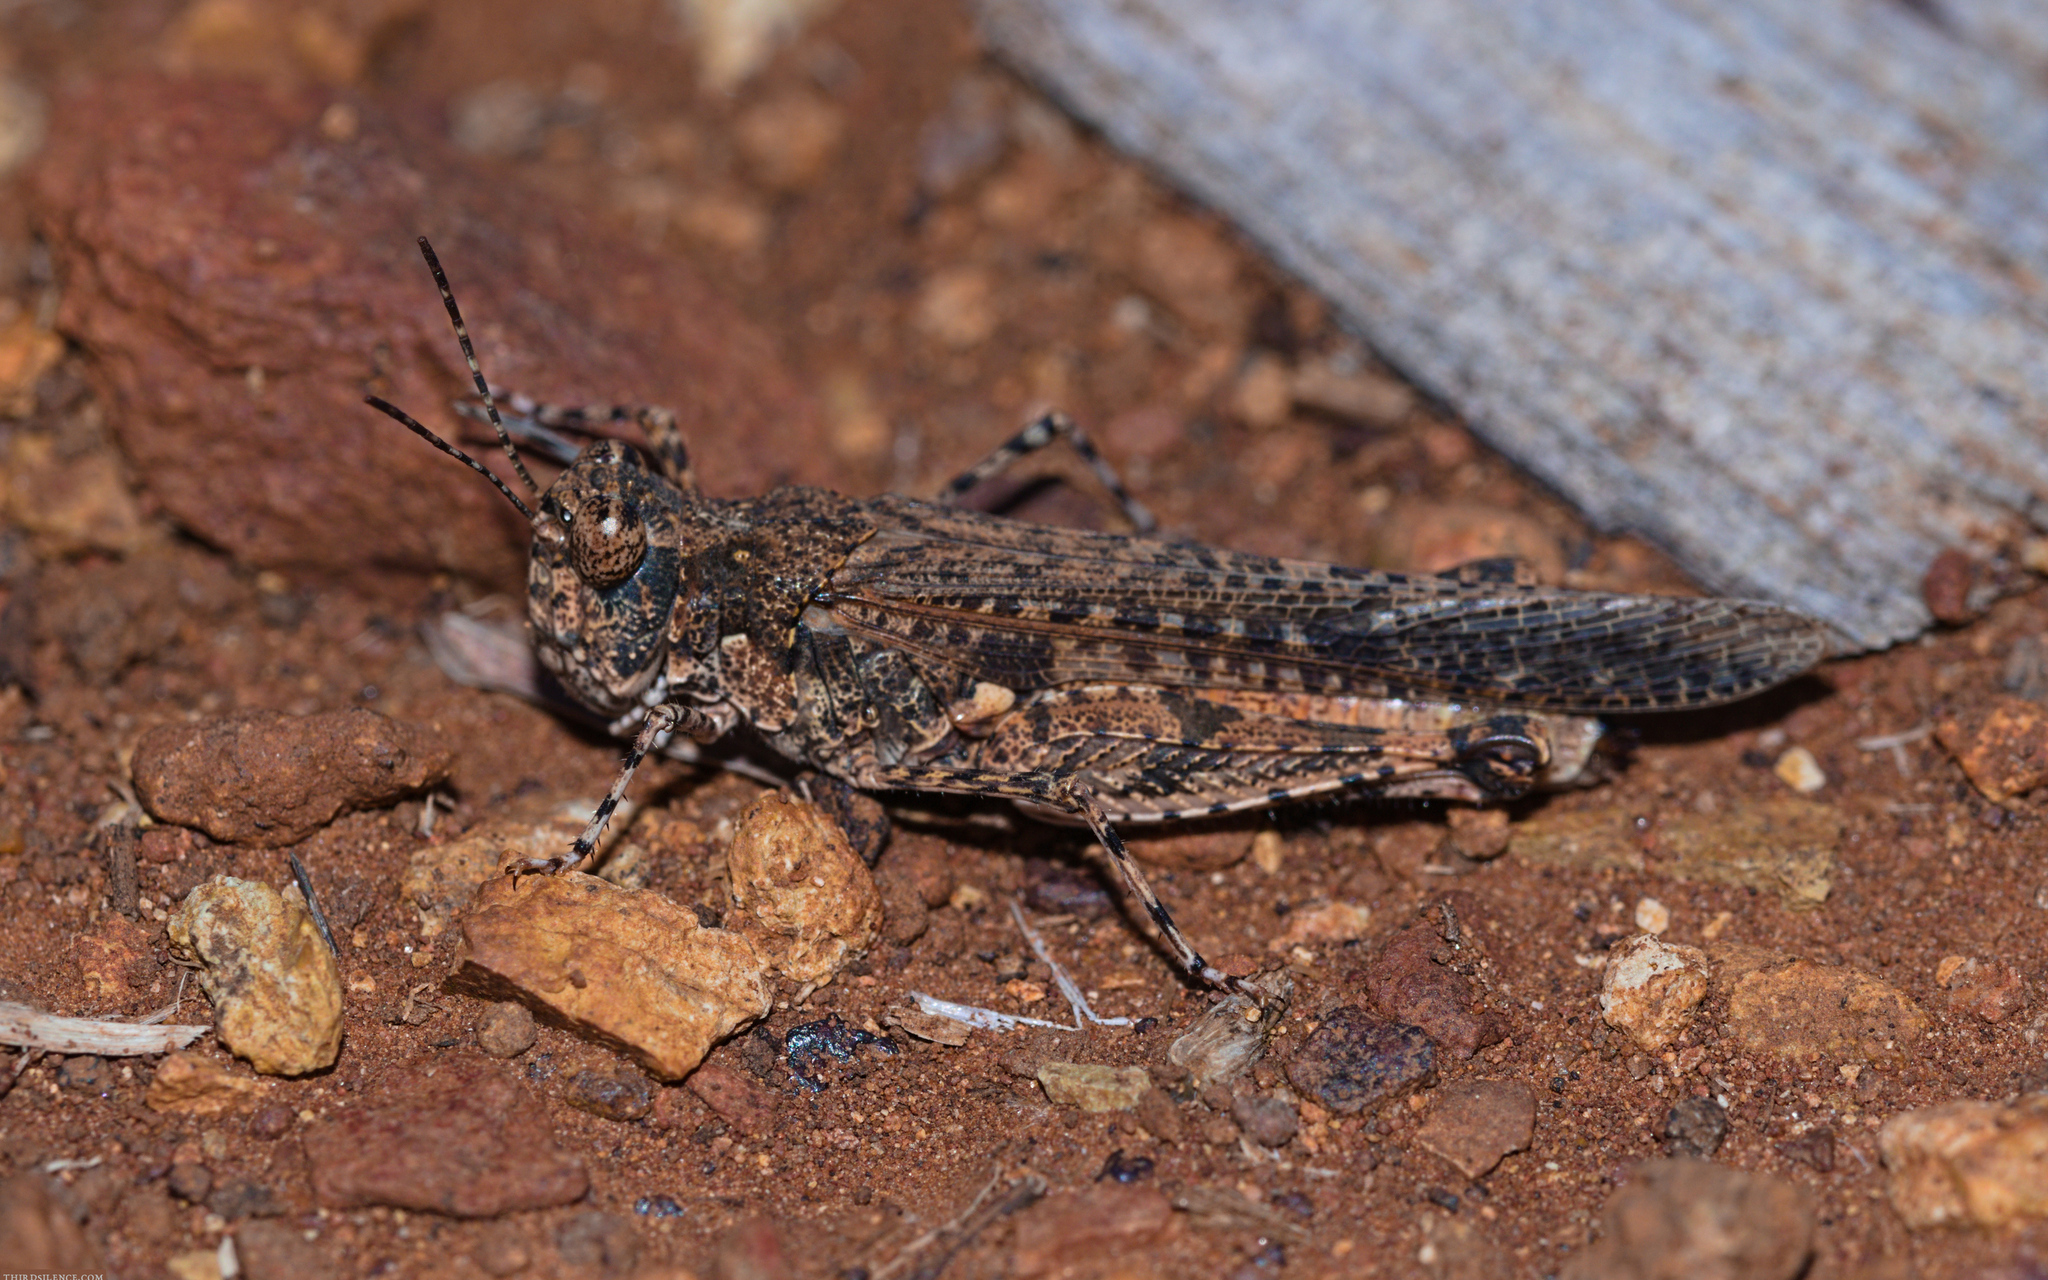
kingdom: Animalia
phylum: Arthropoda
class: Insecta
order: Orthoptera
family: Acrididae
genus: Pycnostictus
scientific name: Pycnostictus seriatus
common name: Common bandwing
